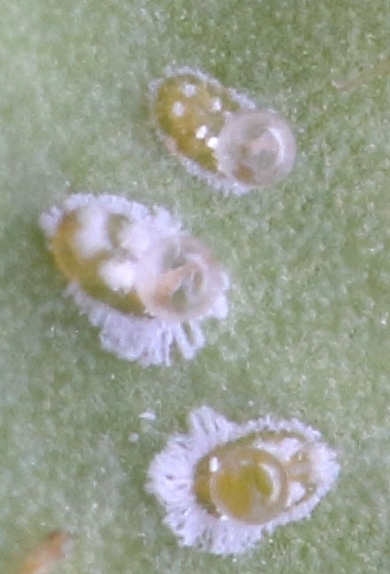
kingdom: Animalia
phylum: Arthropoda
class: Insecta
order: Hemiptera
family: Aleyrodidae
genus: Aleurothrixus
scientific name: Aleurothrixus floccosus
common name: Whitefly
